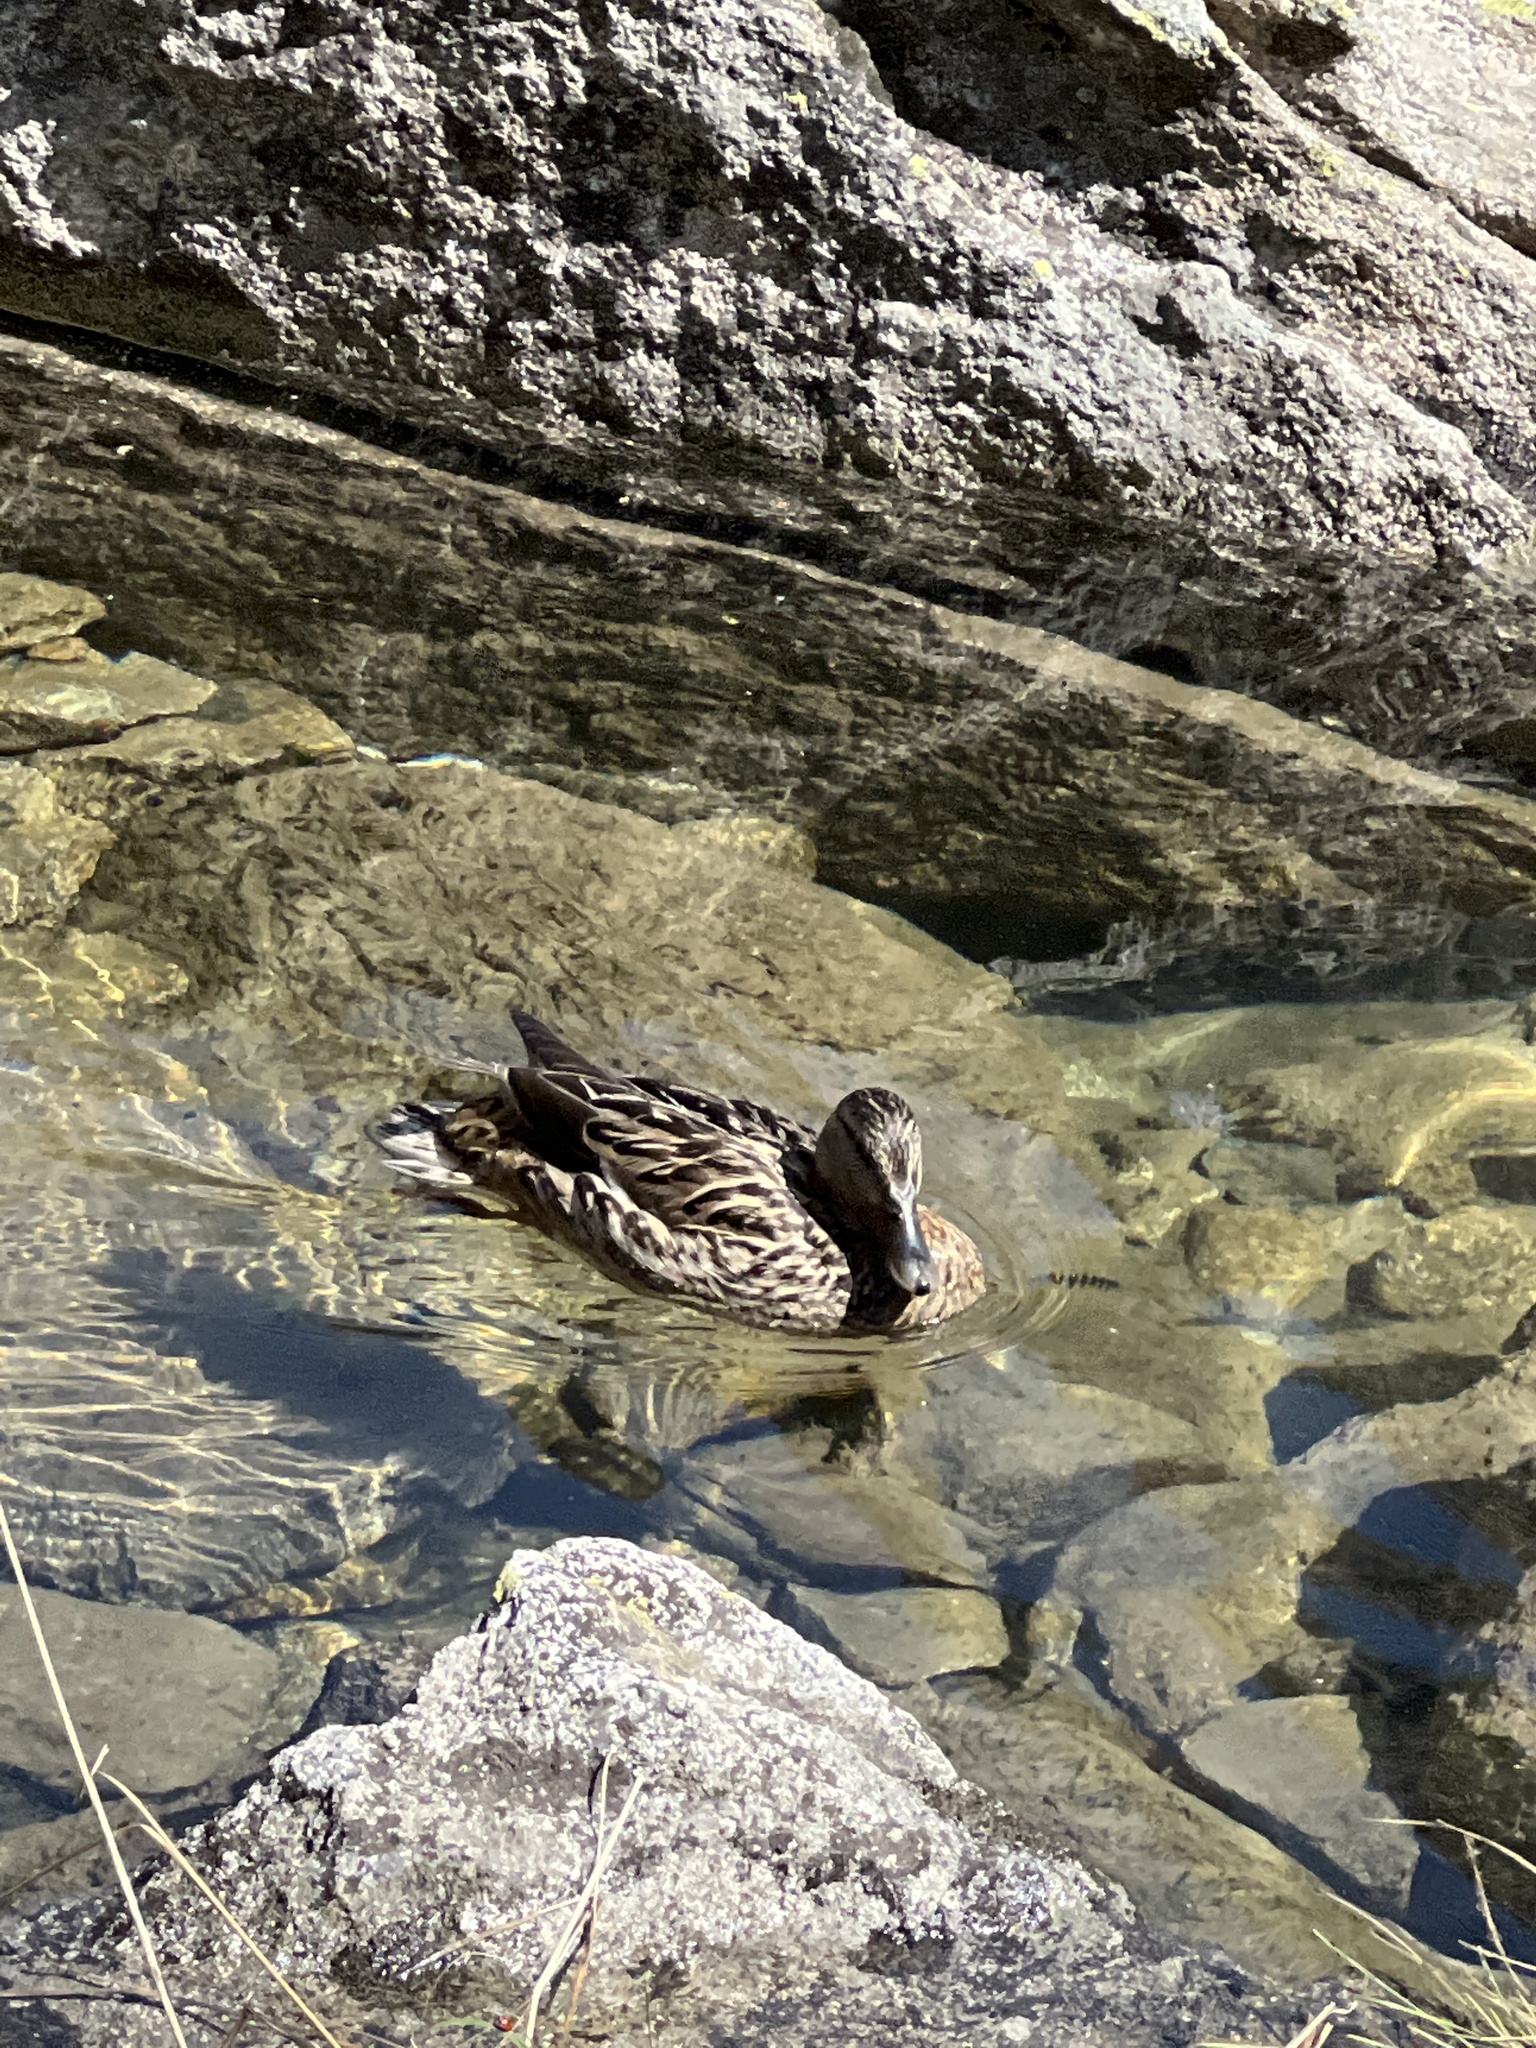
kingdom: Animalia
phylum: Chordata
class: Aves
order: Anseriformes
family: Anatidae
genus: Anas
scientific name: Anas platyrhynchos
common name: Mallard
